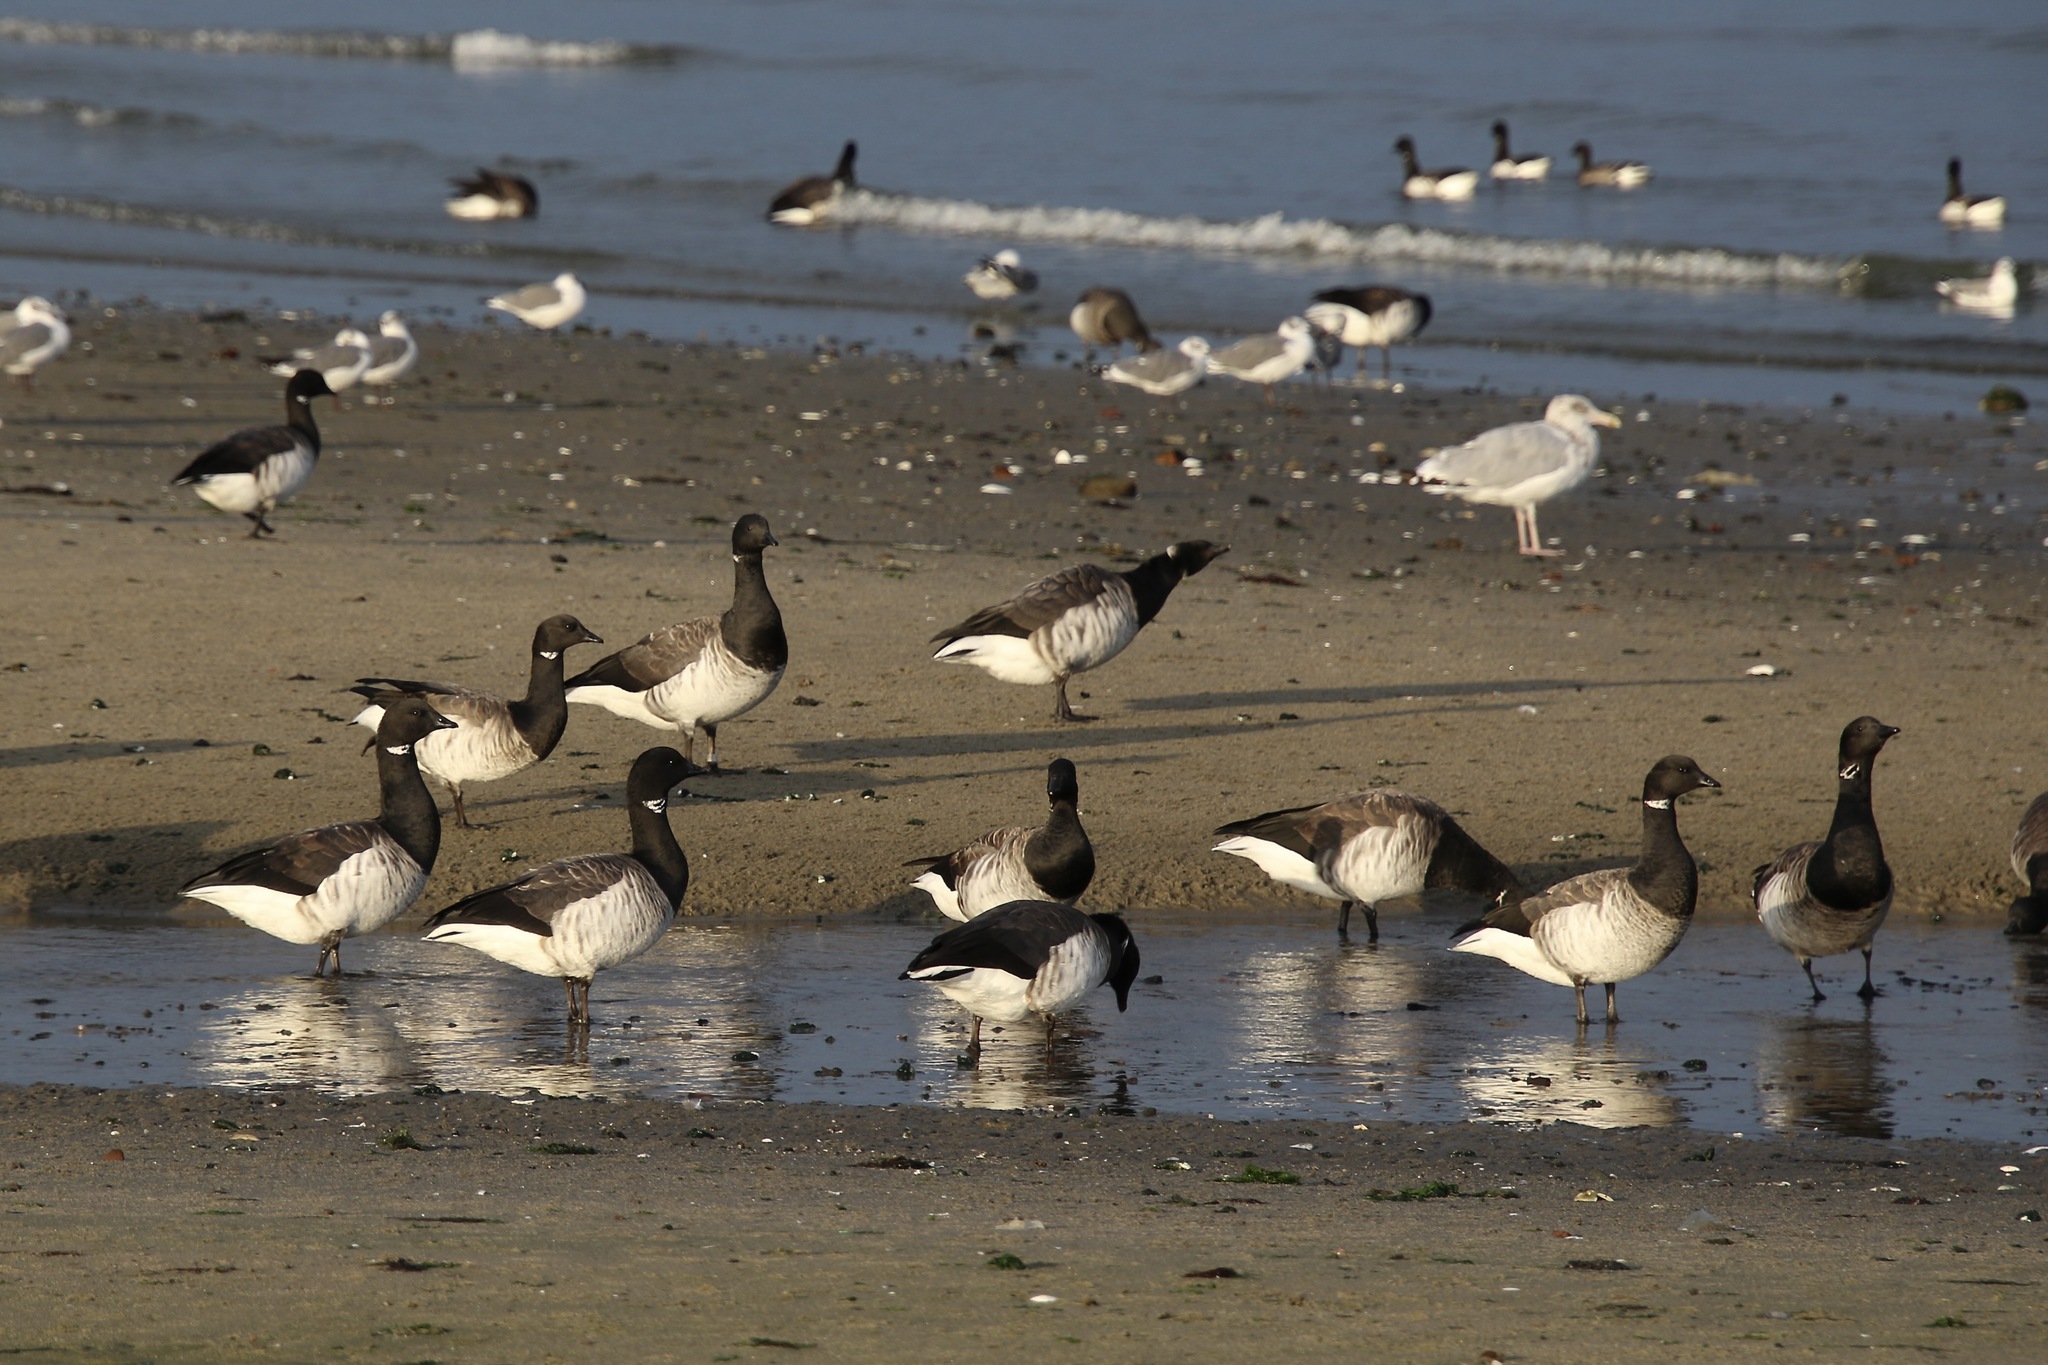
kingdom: Animalia
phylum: Chordata
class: Aves
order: Anseriformes
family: Anatidae
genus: Branta
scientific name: Branta bernicla
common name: Brant goose
